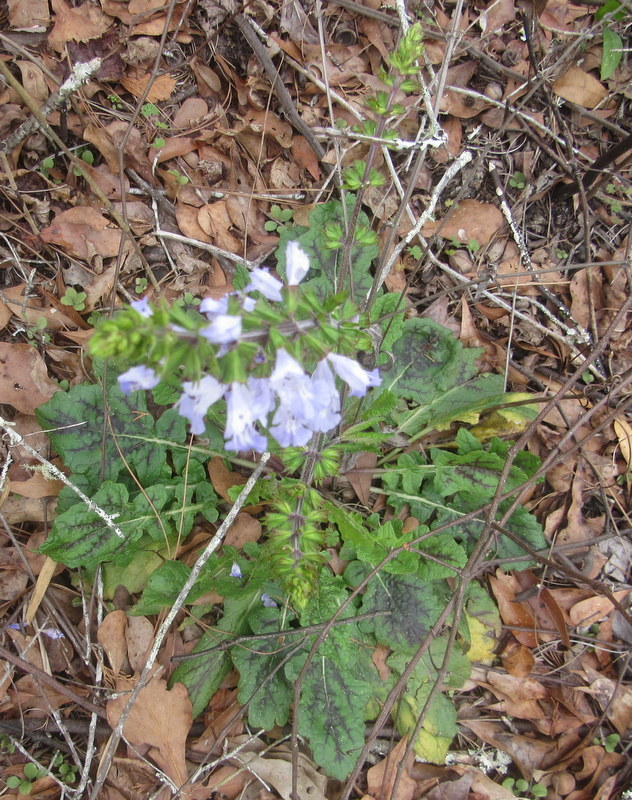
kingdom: Plantae
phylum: Tracheophyta
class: Magnoliopsida
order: Lamiales
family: Lamiaceae
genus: Salvia
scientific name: Salvia lyrata
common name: Cancerweed
